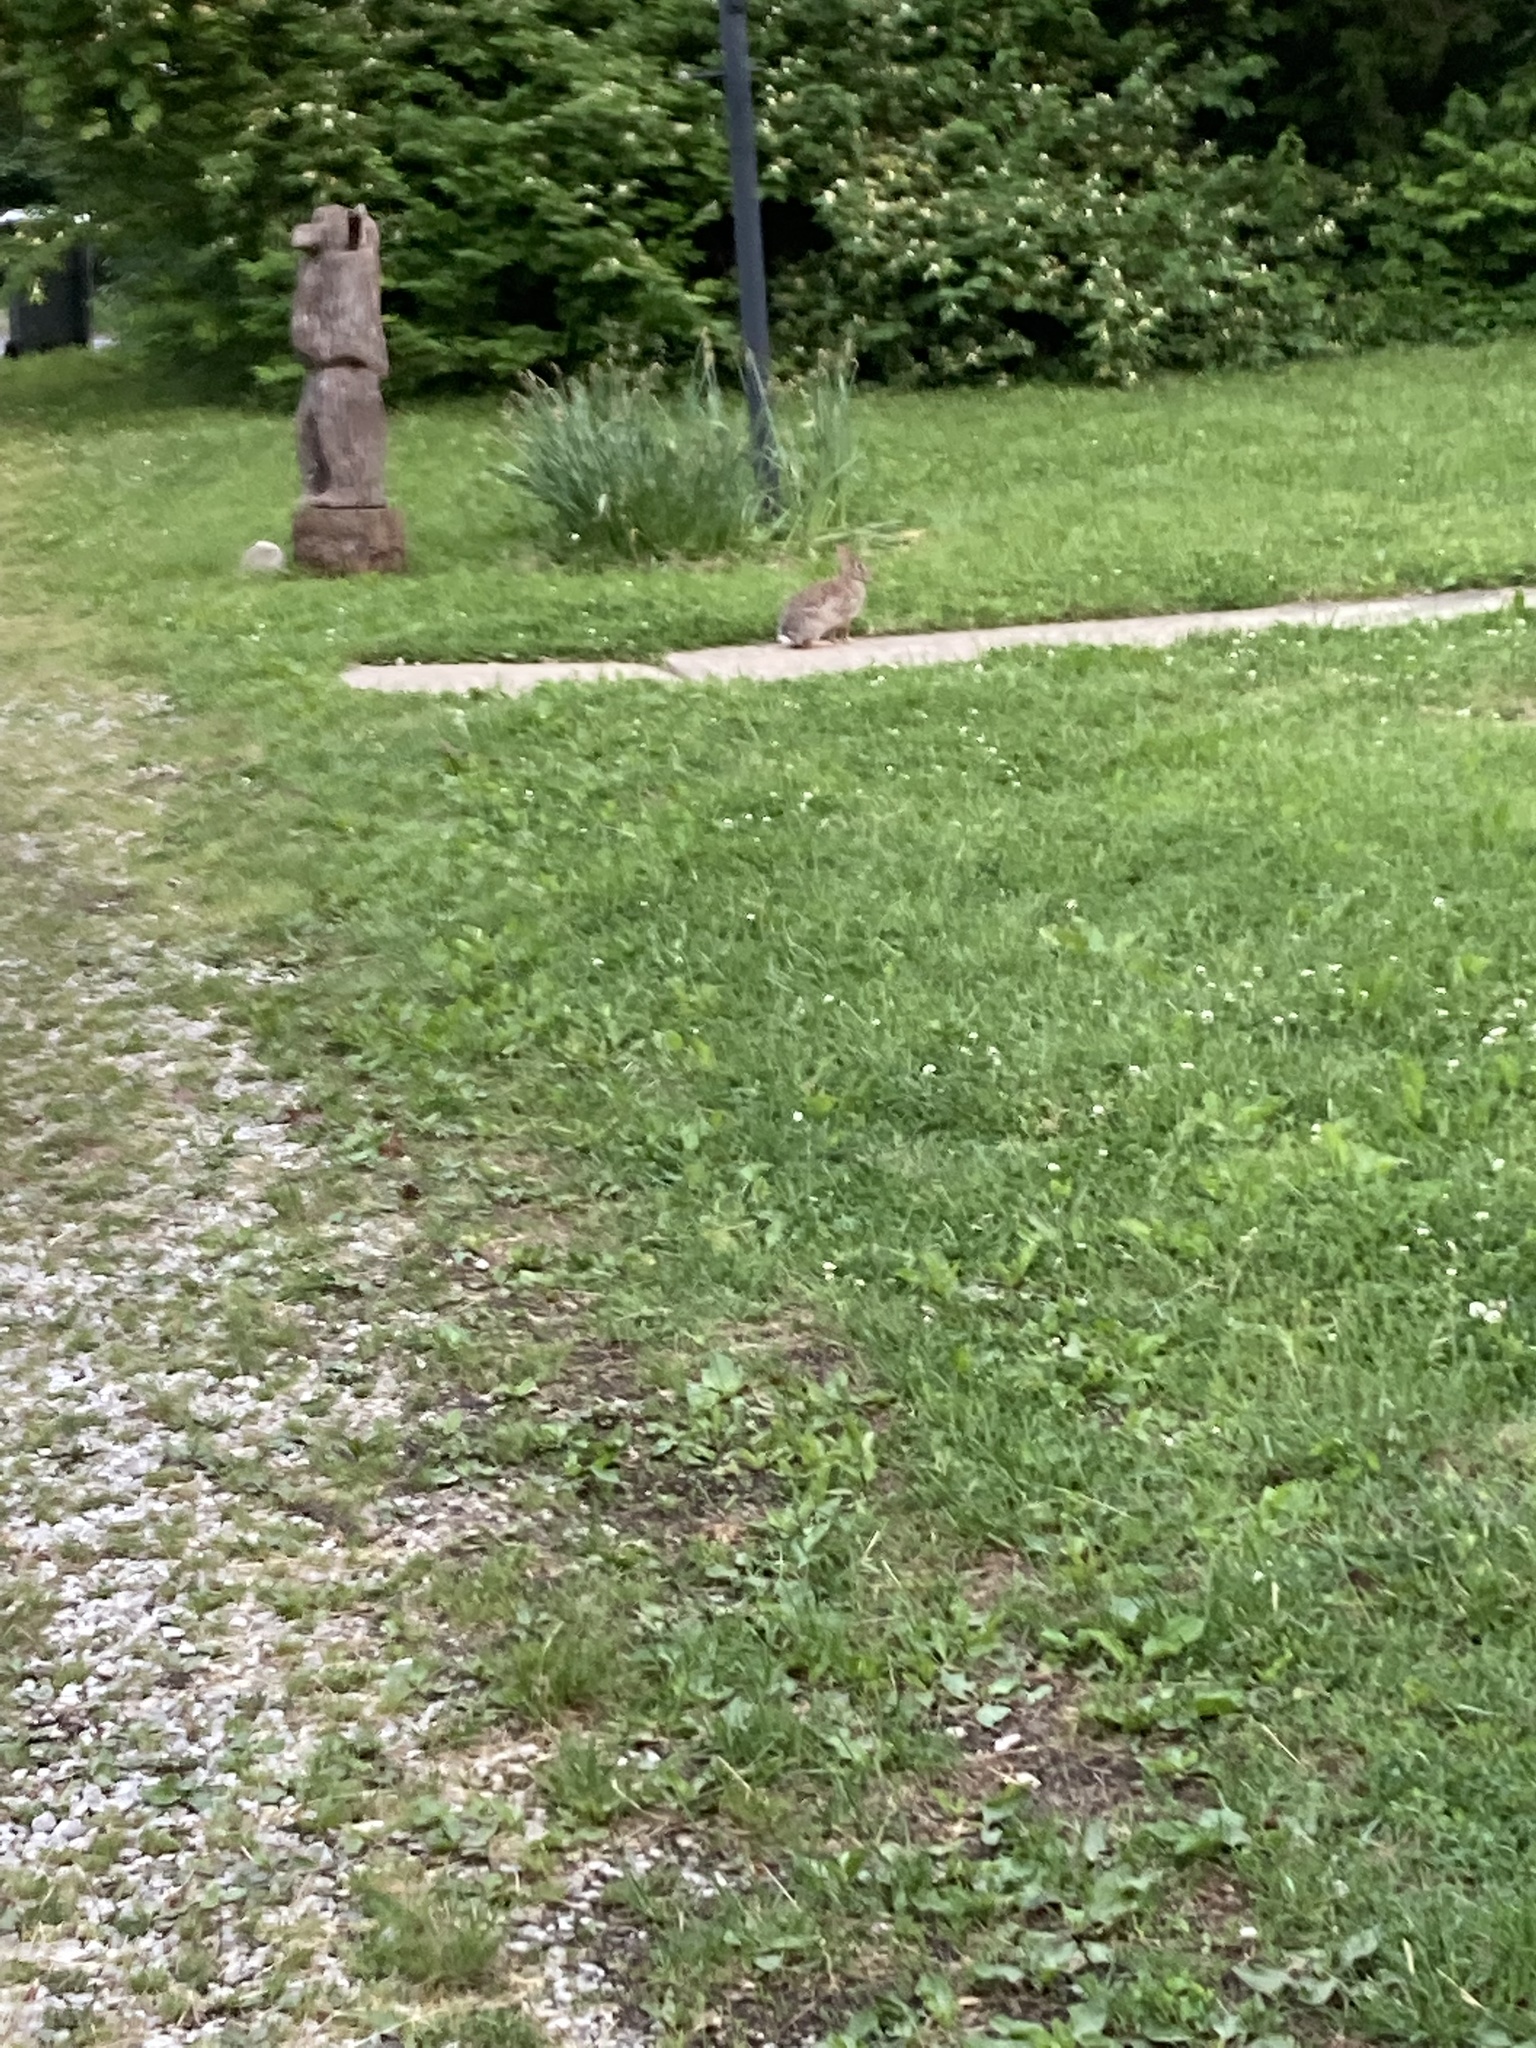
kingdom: Animalia
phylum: Chordata
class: Mammalia
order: Lagomorpha
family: Leporidae
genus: Sylvilagus
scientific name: Sylvilagus floridanus
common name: Eastern cottontail
